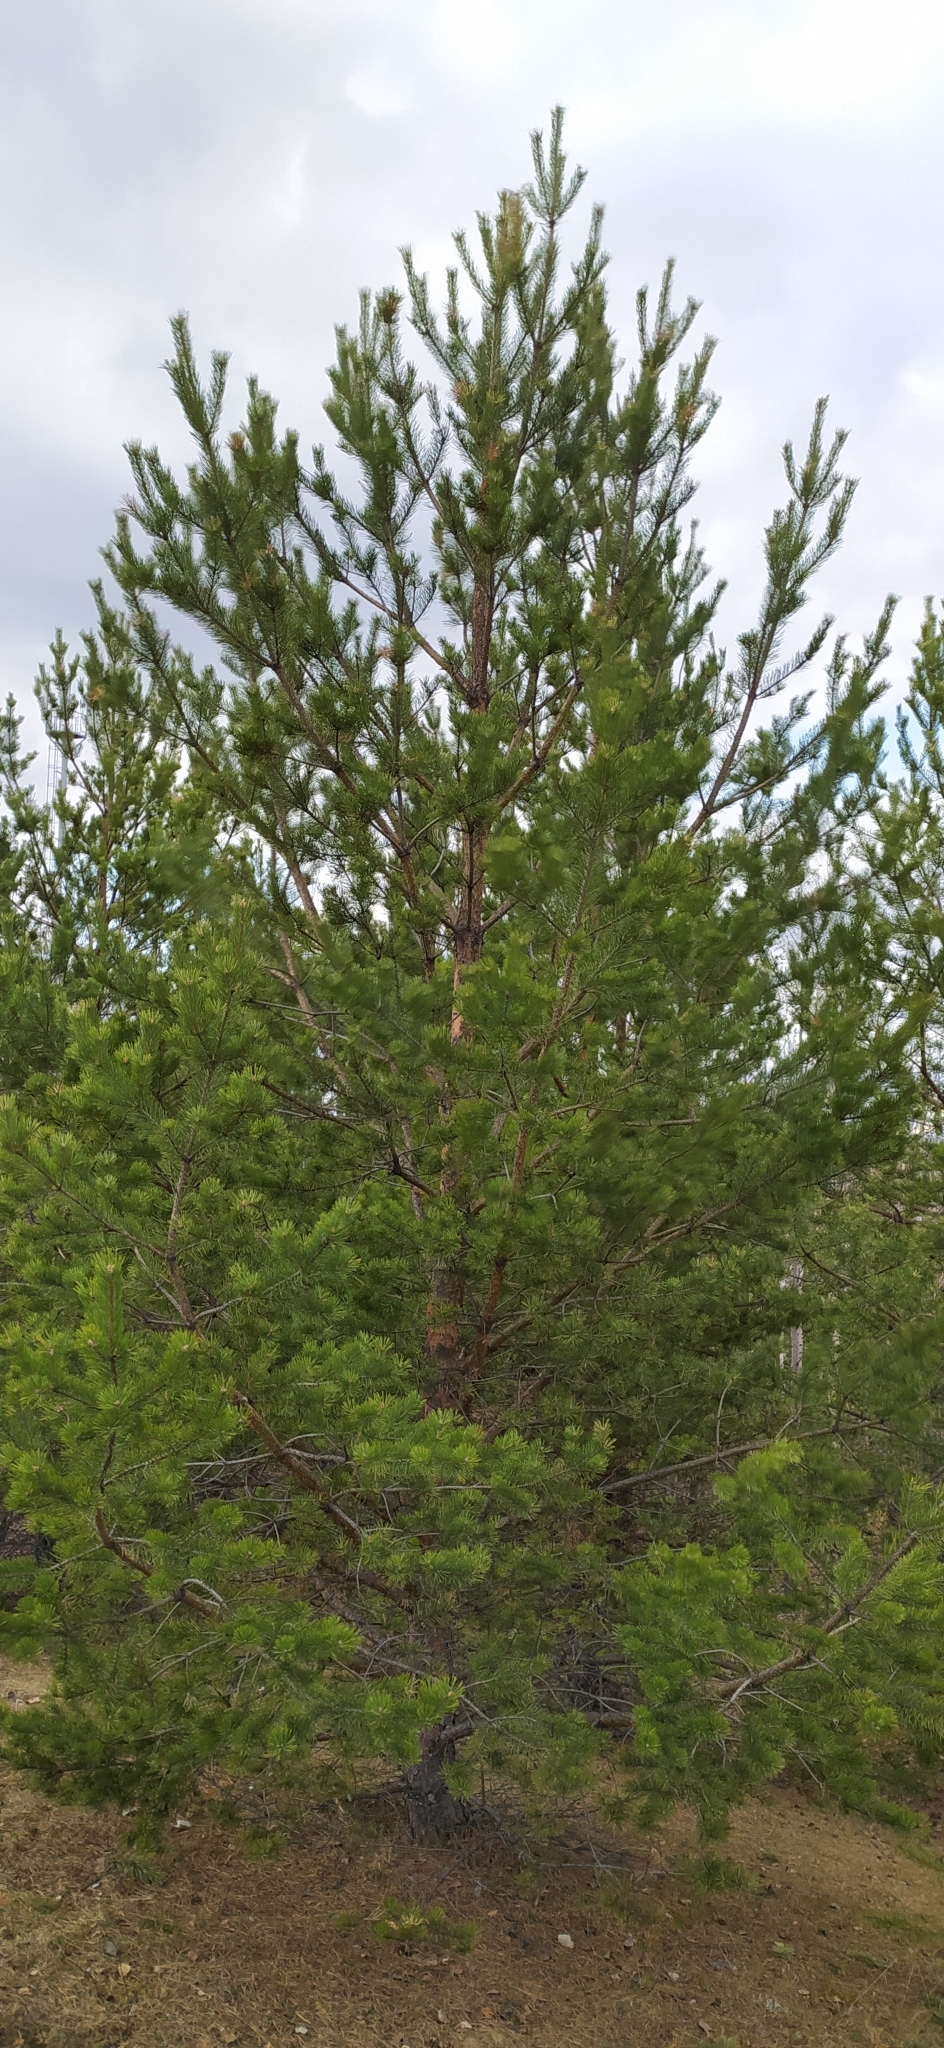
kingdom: Plantae
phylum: Tracheophyta
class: Pinopsida
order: Pinales
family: Pinaceae
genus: Pinus
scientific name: Pinus sylvestris
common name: Scots pine
